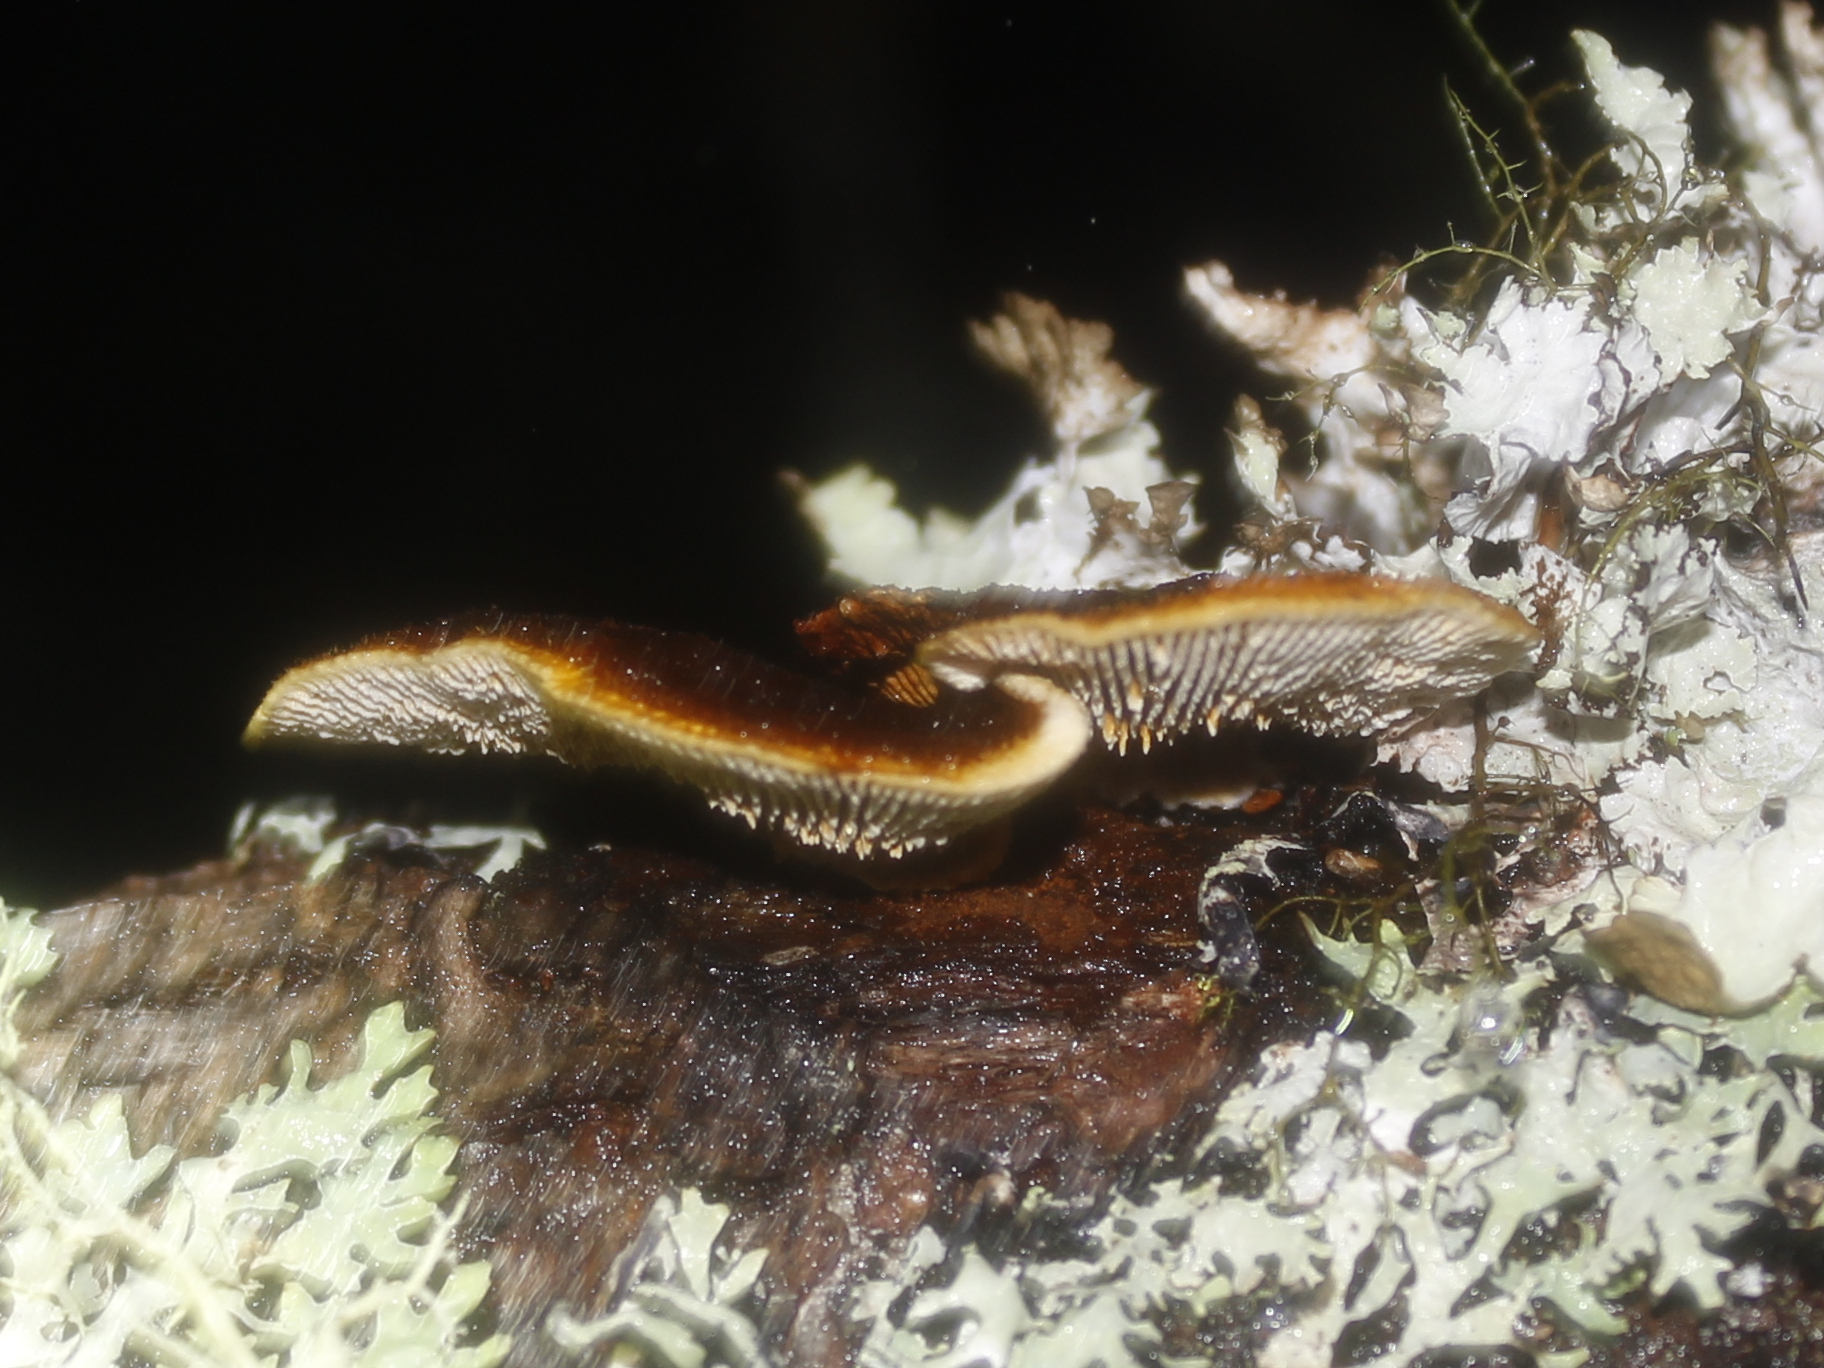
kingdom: Fungi
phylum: Basidiomycota
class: Agaricomycetes
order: Gloeophyllales
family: Gloeophyllaceae
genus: Gloeophyllum
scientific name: Gloeophyllum sepiarium
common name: Conifer mazegill
